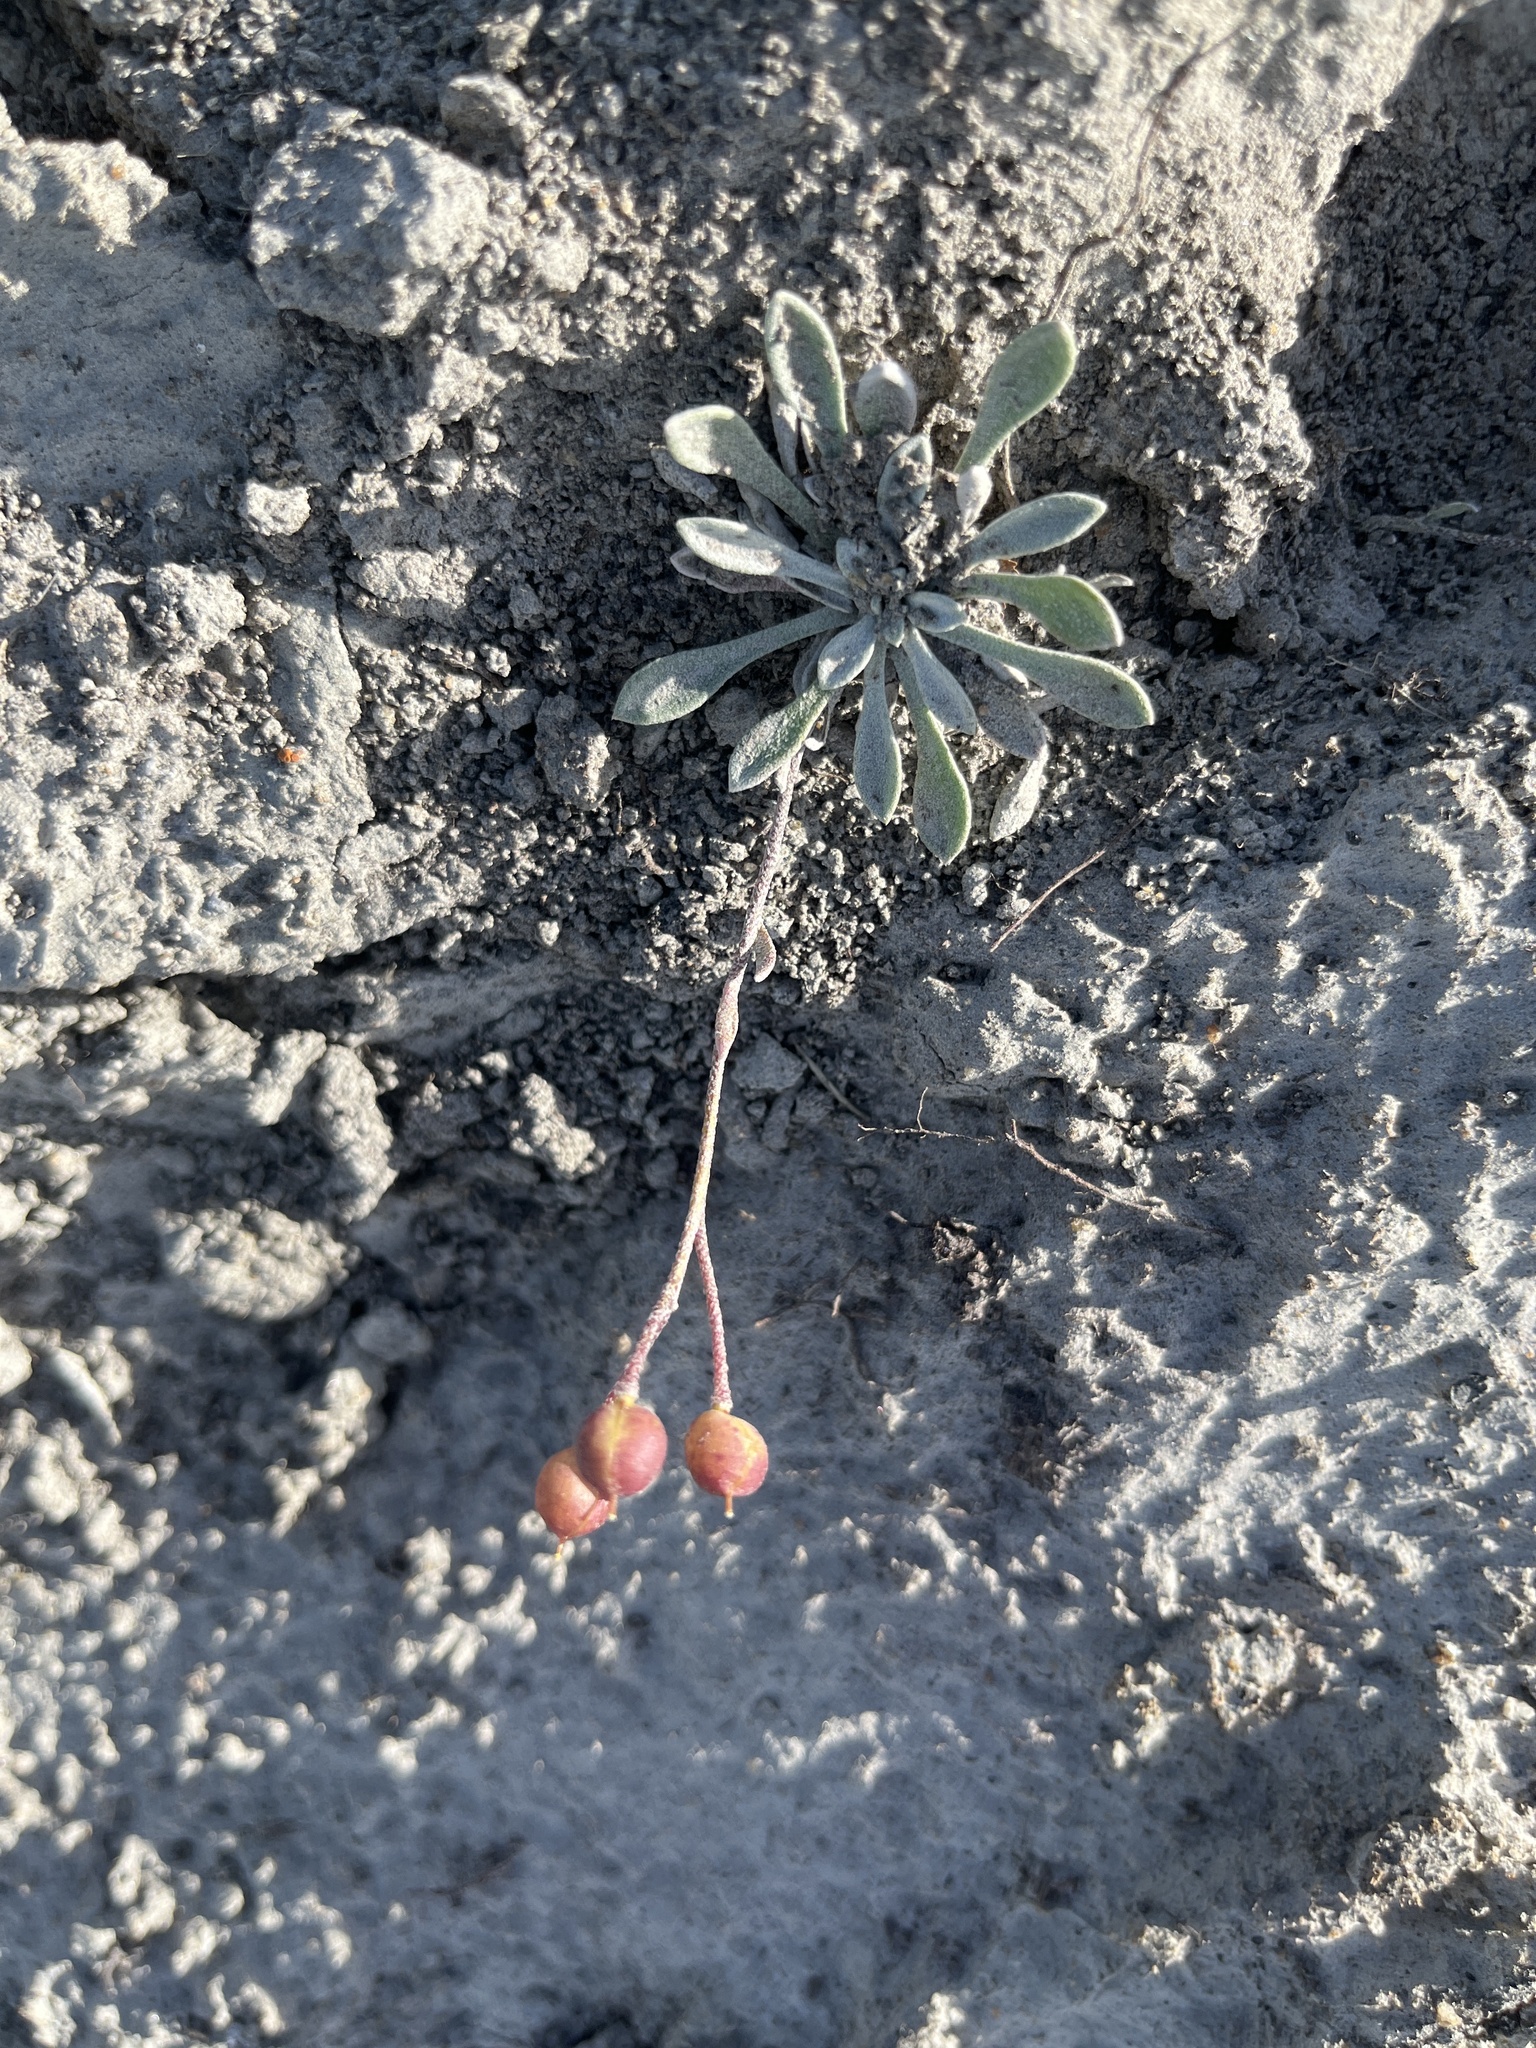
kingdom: Plantae
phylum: Tracheophyta
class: Magnoliopsida
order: Brassicales
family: Brassicaceae
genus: Physaria
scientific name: Physaria arctica
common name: Arctic bladderpod
